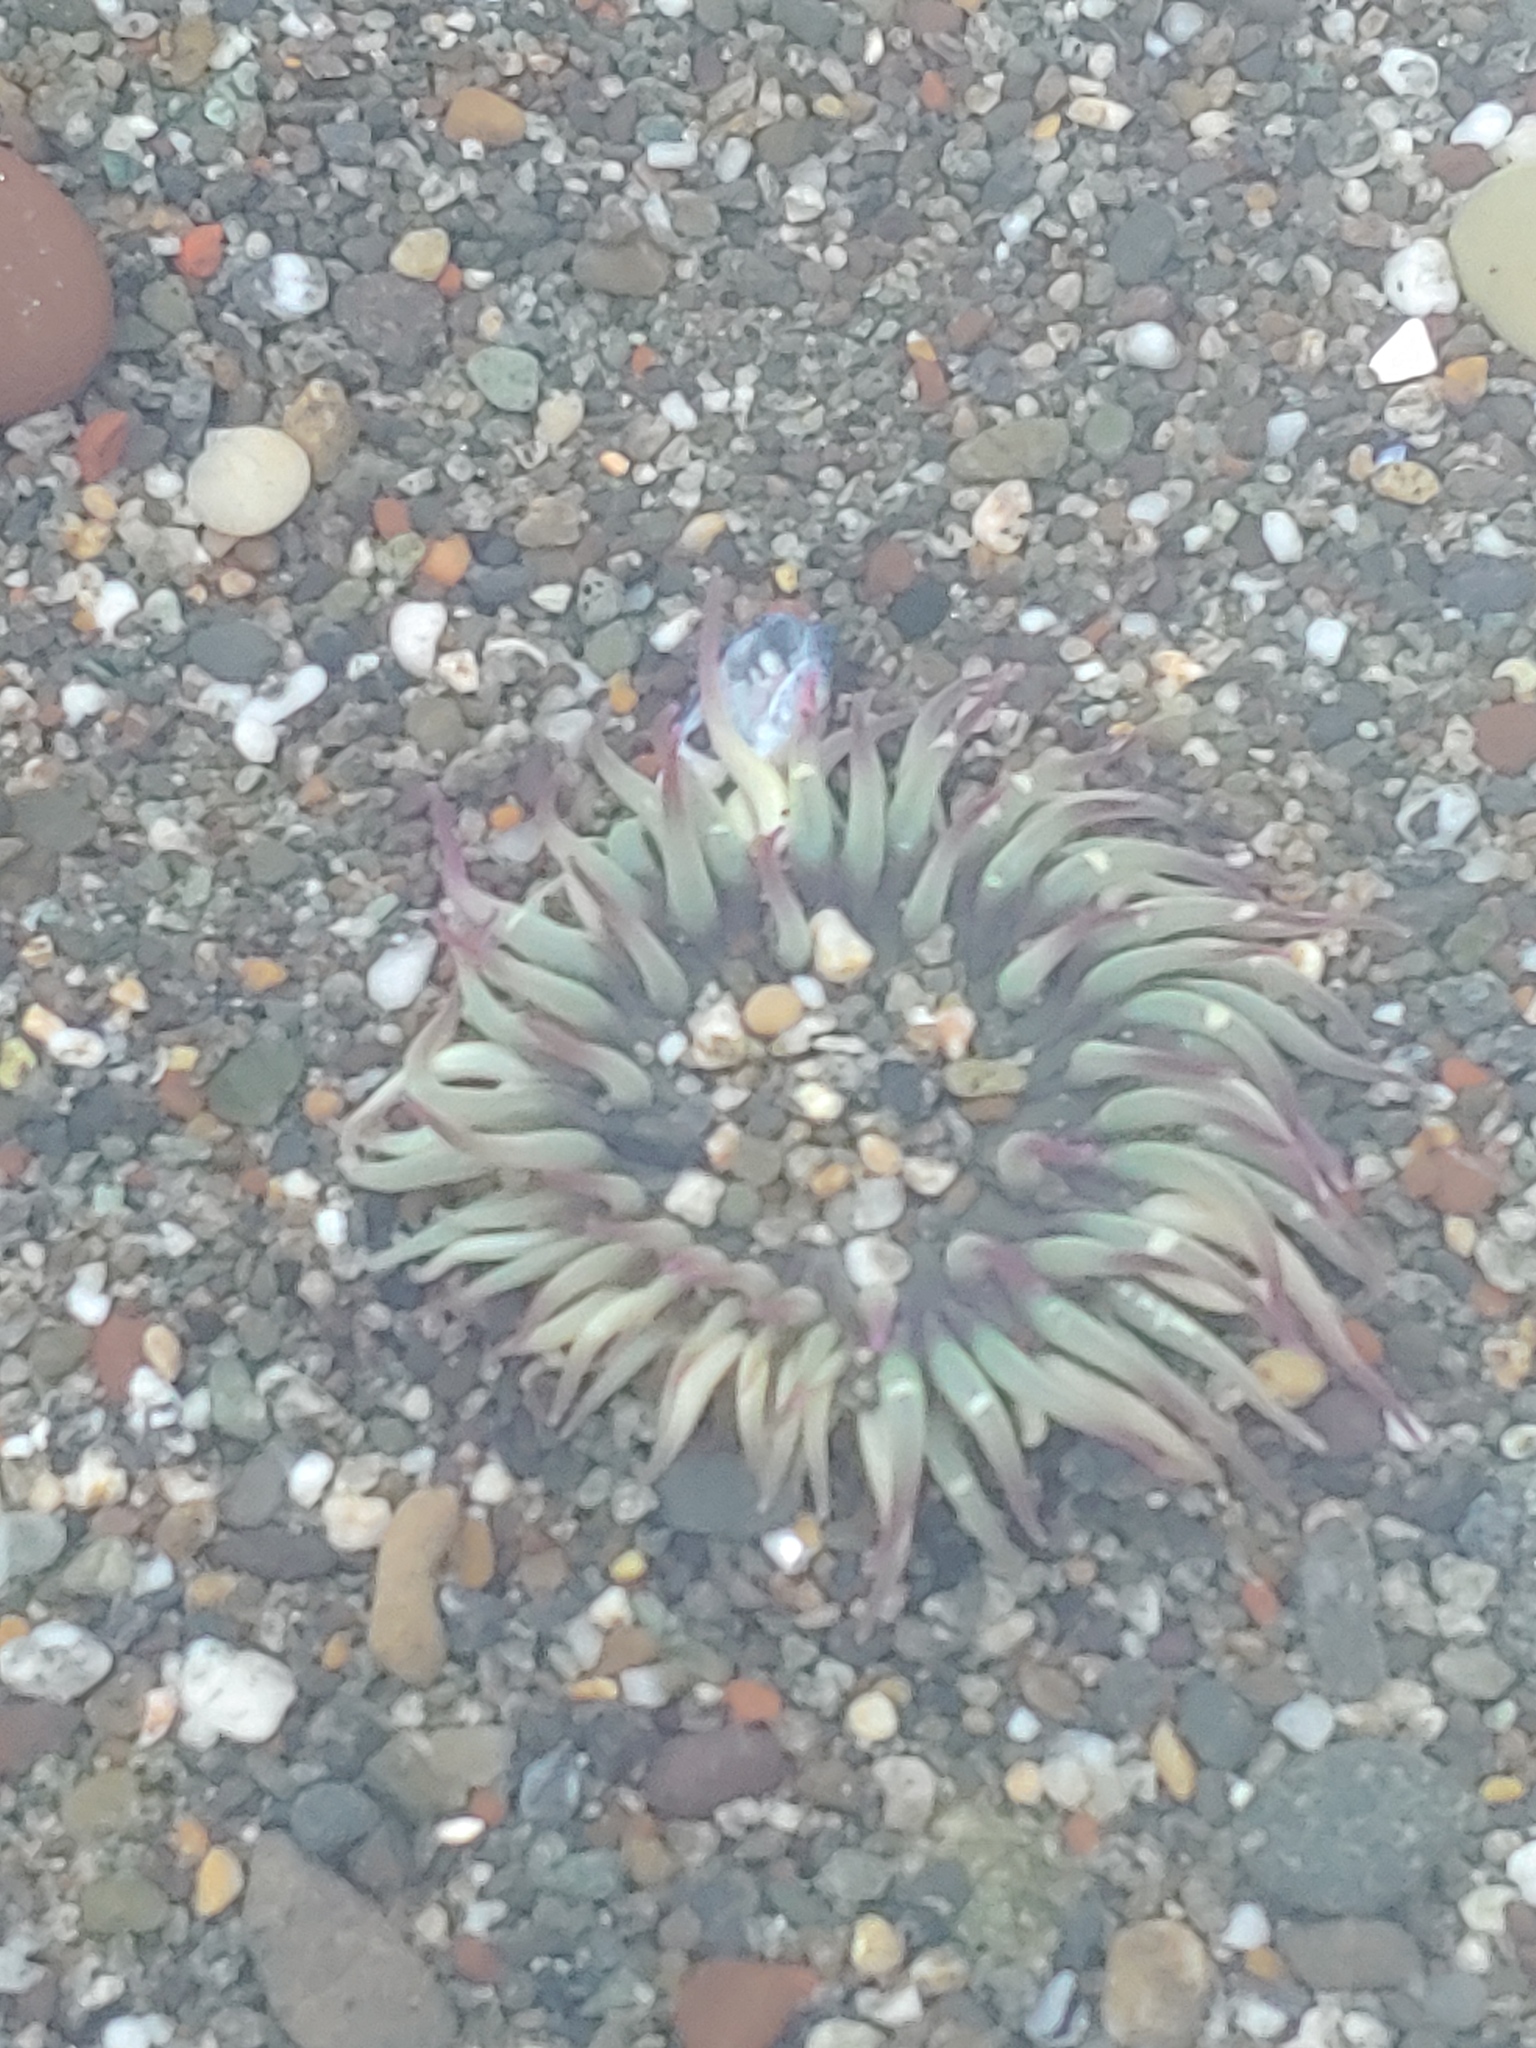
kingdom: Animalia
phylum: Cnidaria
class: Anthozoa
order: Actiniaria
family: Actiniidae
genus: Anthopleura
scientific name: Anthopleura elegantissima
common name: Clonal anemone
